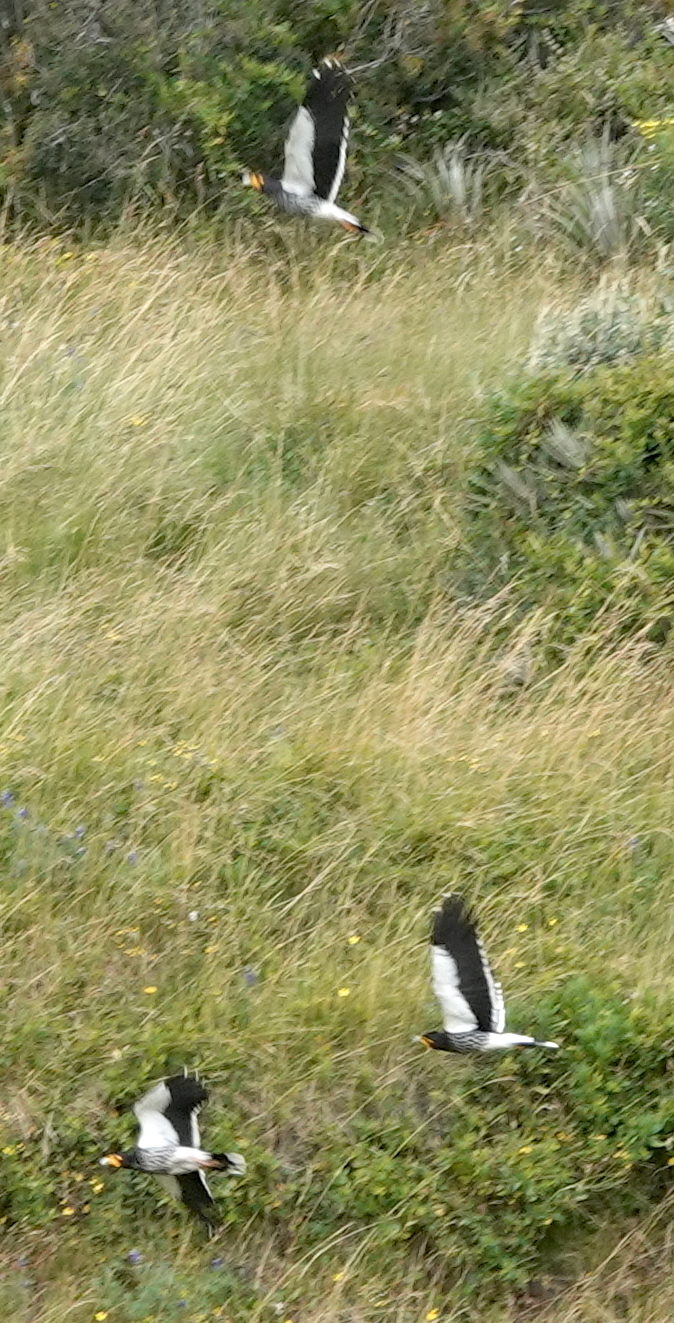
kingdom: Animalia
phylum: Chordata
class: Aves
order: Falconiformes
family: Falconidae
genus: Daptrius
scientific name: Daptrius
